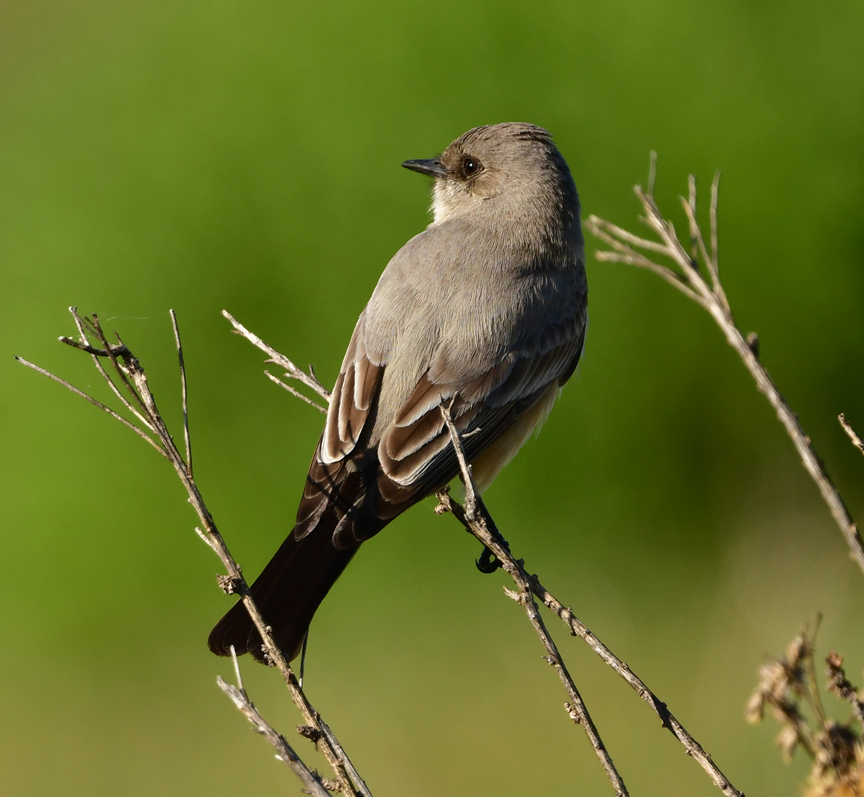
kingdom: Animalia
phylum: Chordata
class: Aves
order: Passeriformes
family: Tyrannidae
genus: Sayornis
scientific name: Sayornis saya
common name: Say's phoebe
